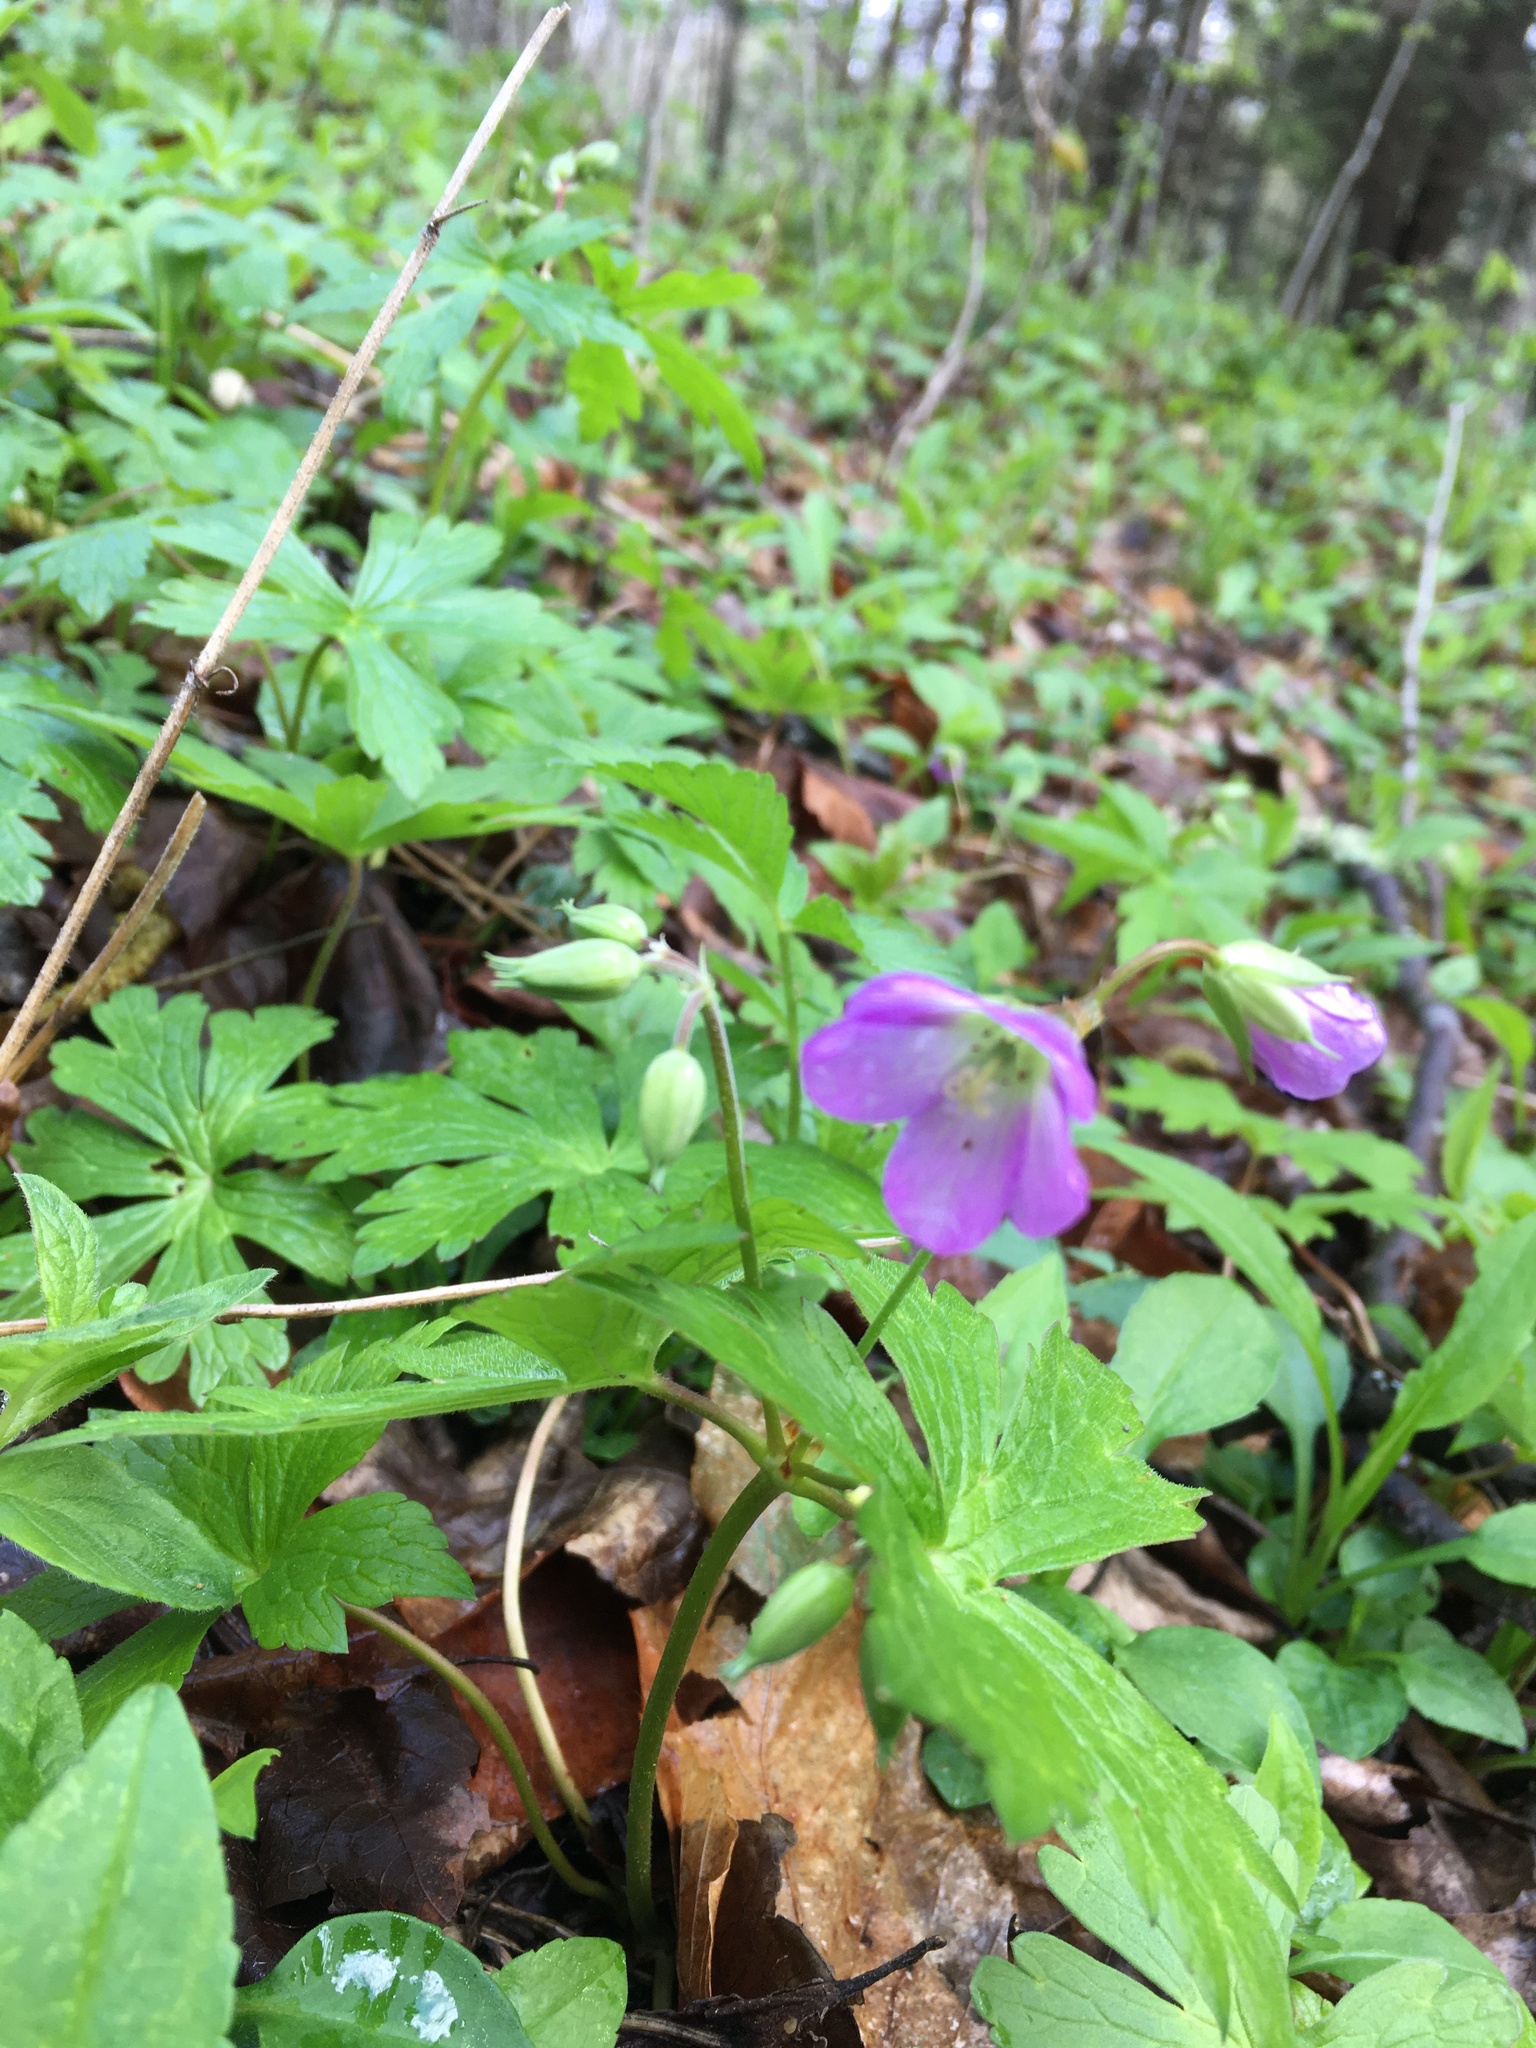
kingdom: Plantae
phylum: Tracheophyta
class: Magnoliopsida
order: Geraniales
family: Geraniaceae
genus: Geranium
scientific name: Geranium maculatum
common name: Spotted geranium
